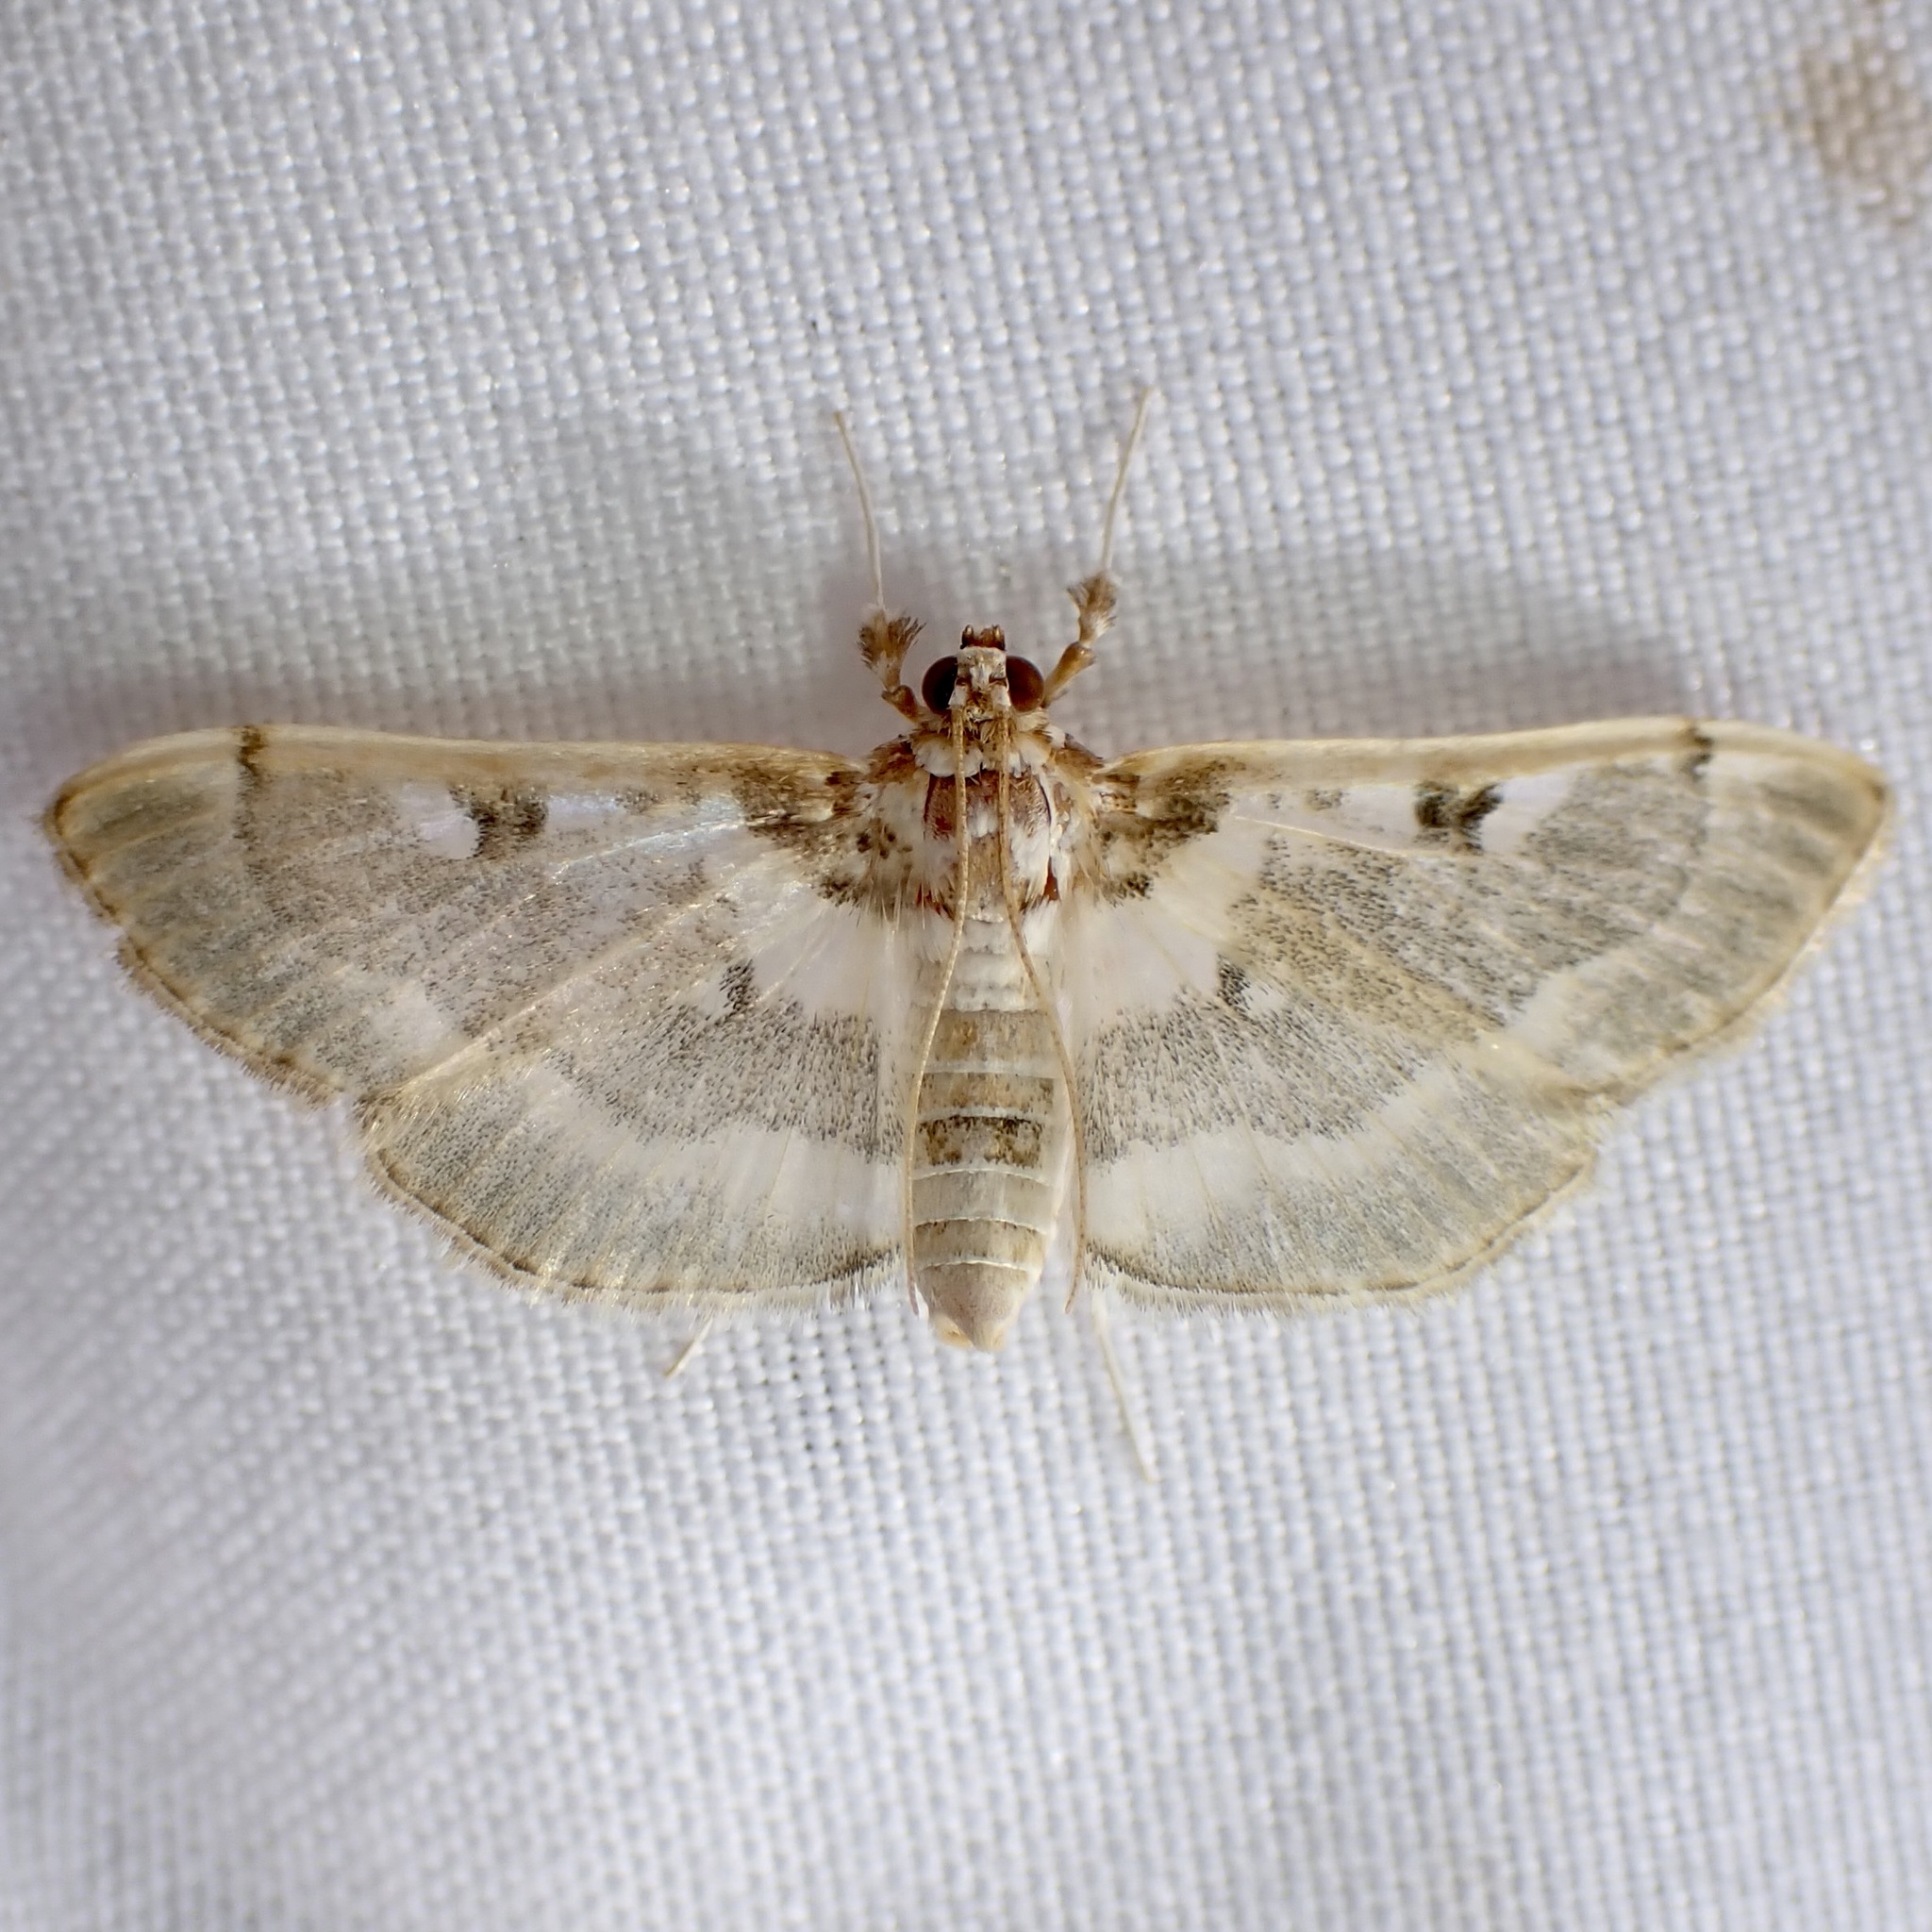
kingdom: Animalia
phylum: Arthropoda
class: Insecta
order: Lepidoptera
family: Crambidae
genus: Apilocrocis
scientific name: Apilocrocis pimalis
